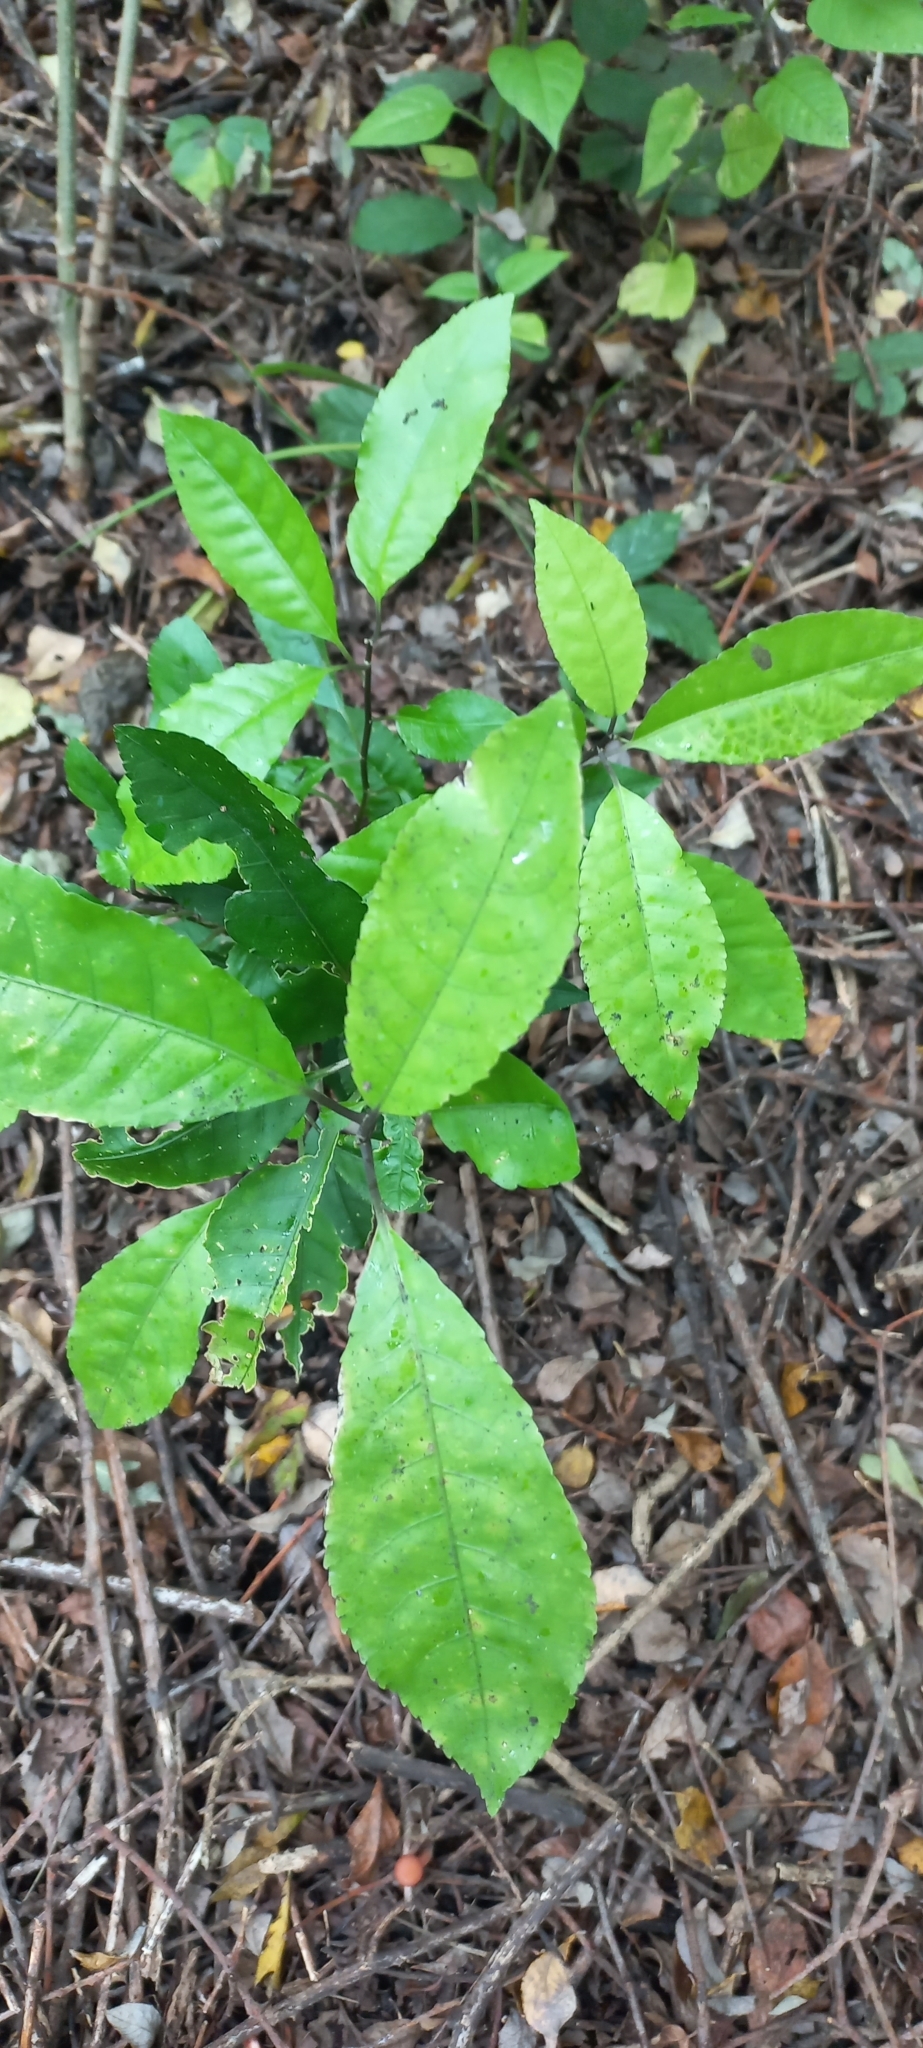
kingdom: Plantae
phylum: Tracheophyta
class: Magnoliopsida
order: Malpighiales
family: Violaceae
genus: Melicytus
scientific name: Melicytus ramiflorus
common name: Mahoe
